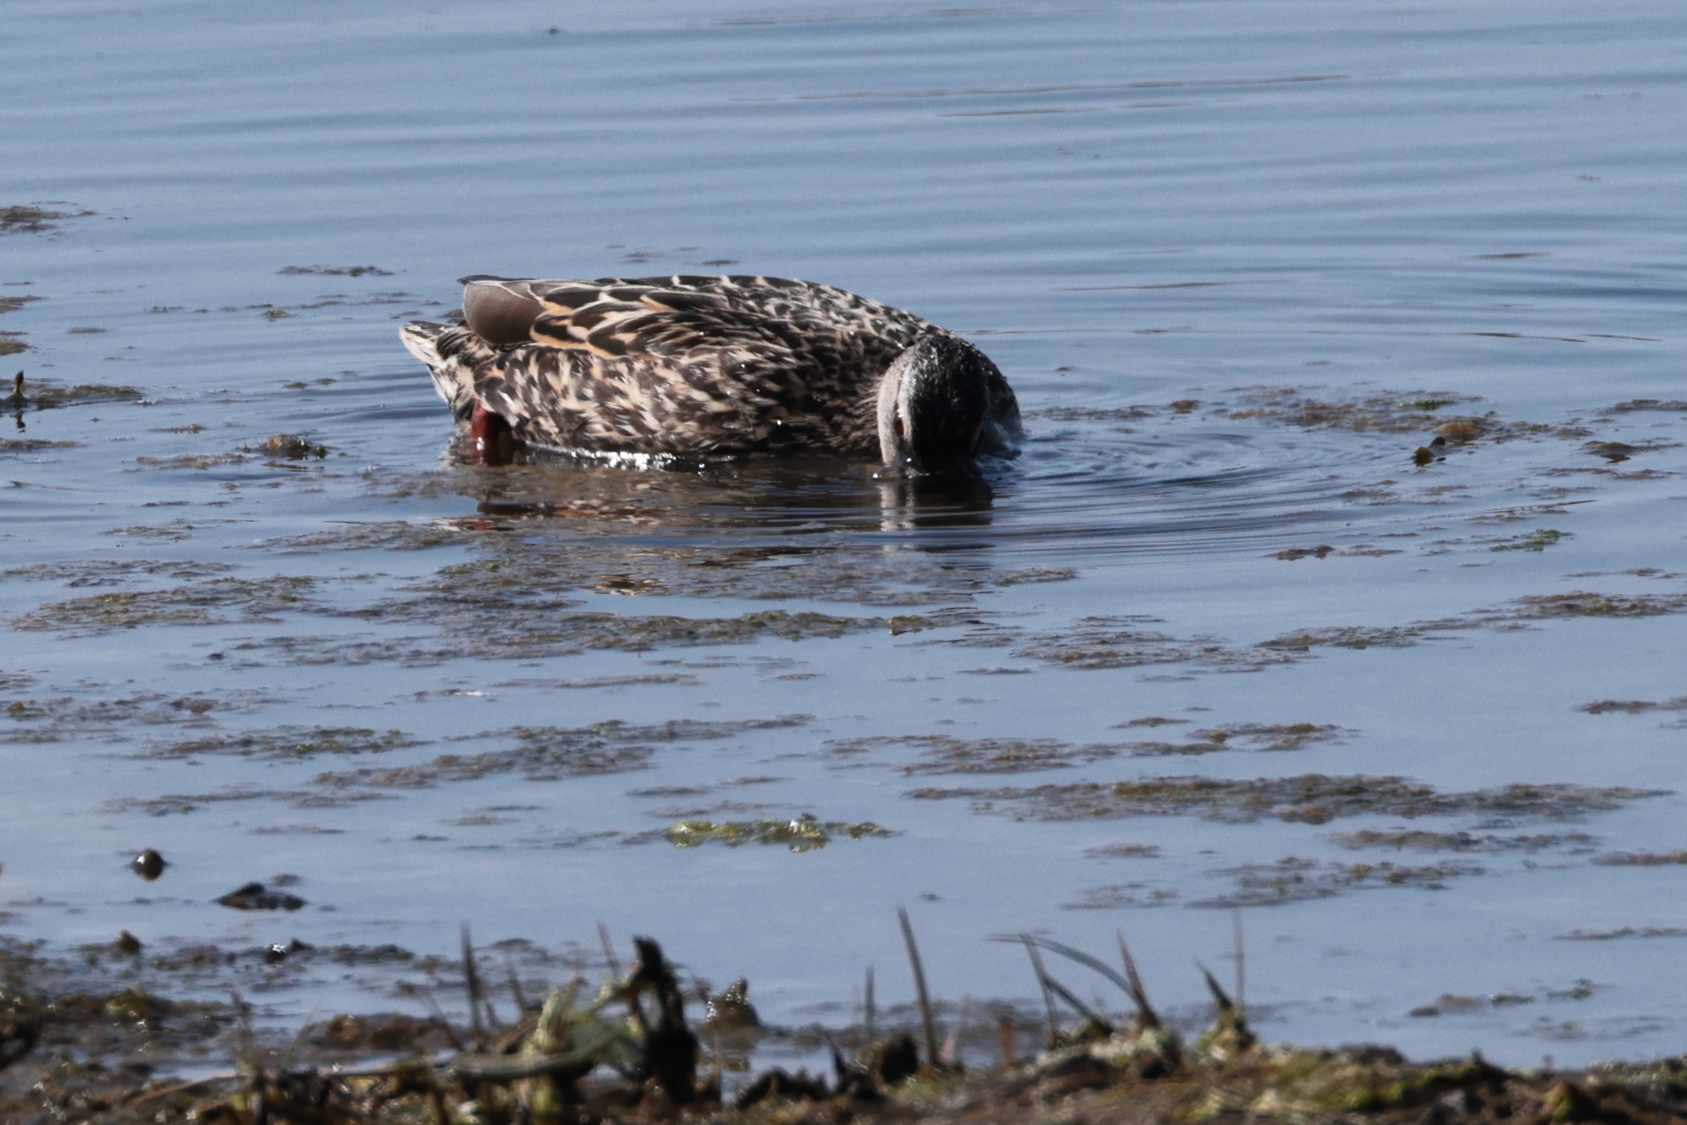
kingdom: Animalia
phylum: Chordata
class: Aves
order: Anseriformes
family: Anatidae
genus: Anas
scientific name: Anas platyrhynchos
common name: Mallard
